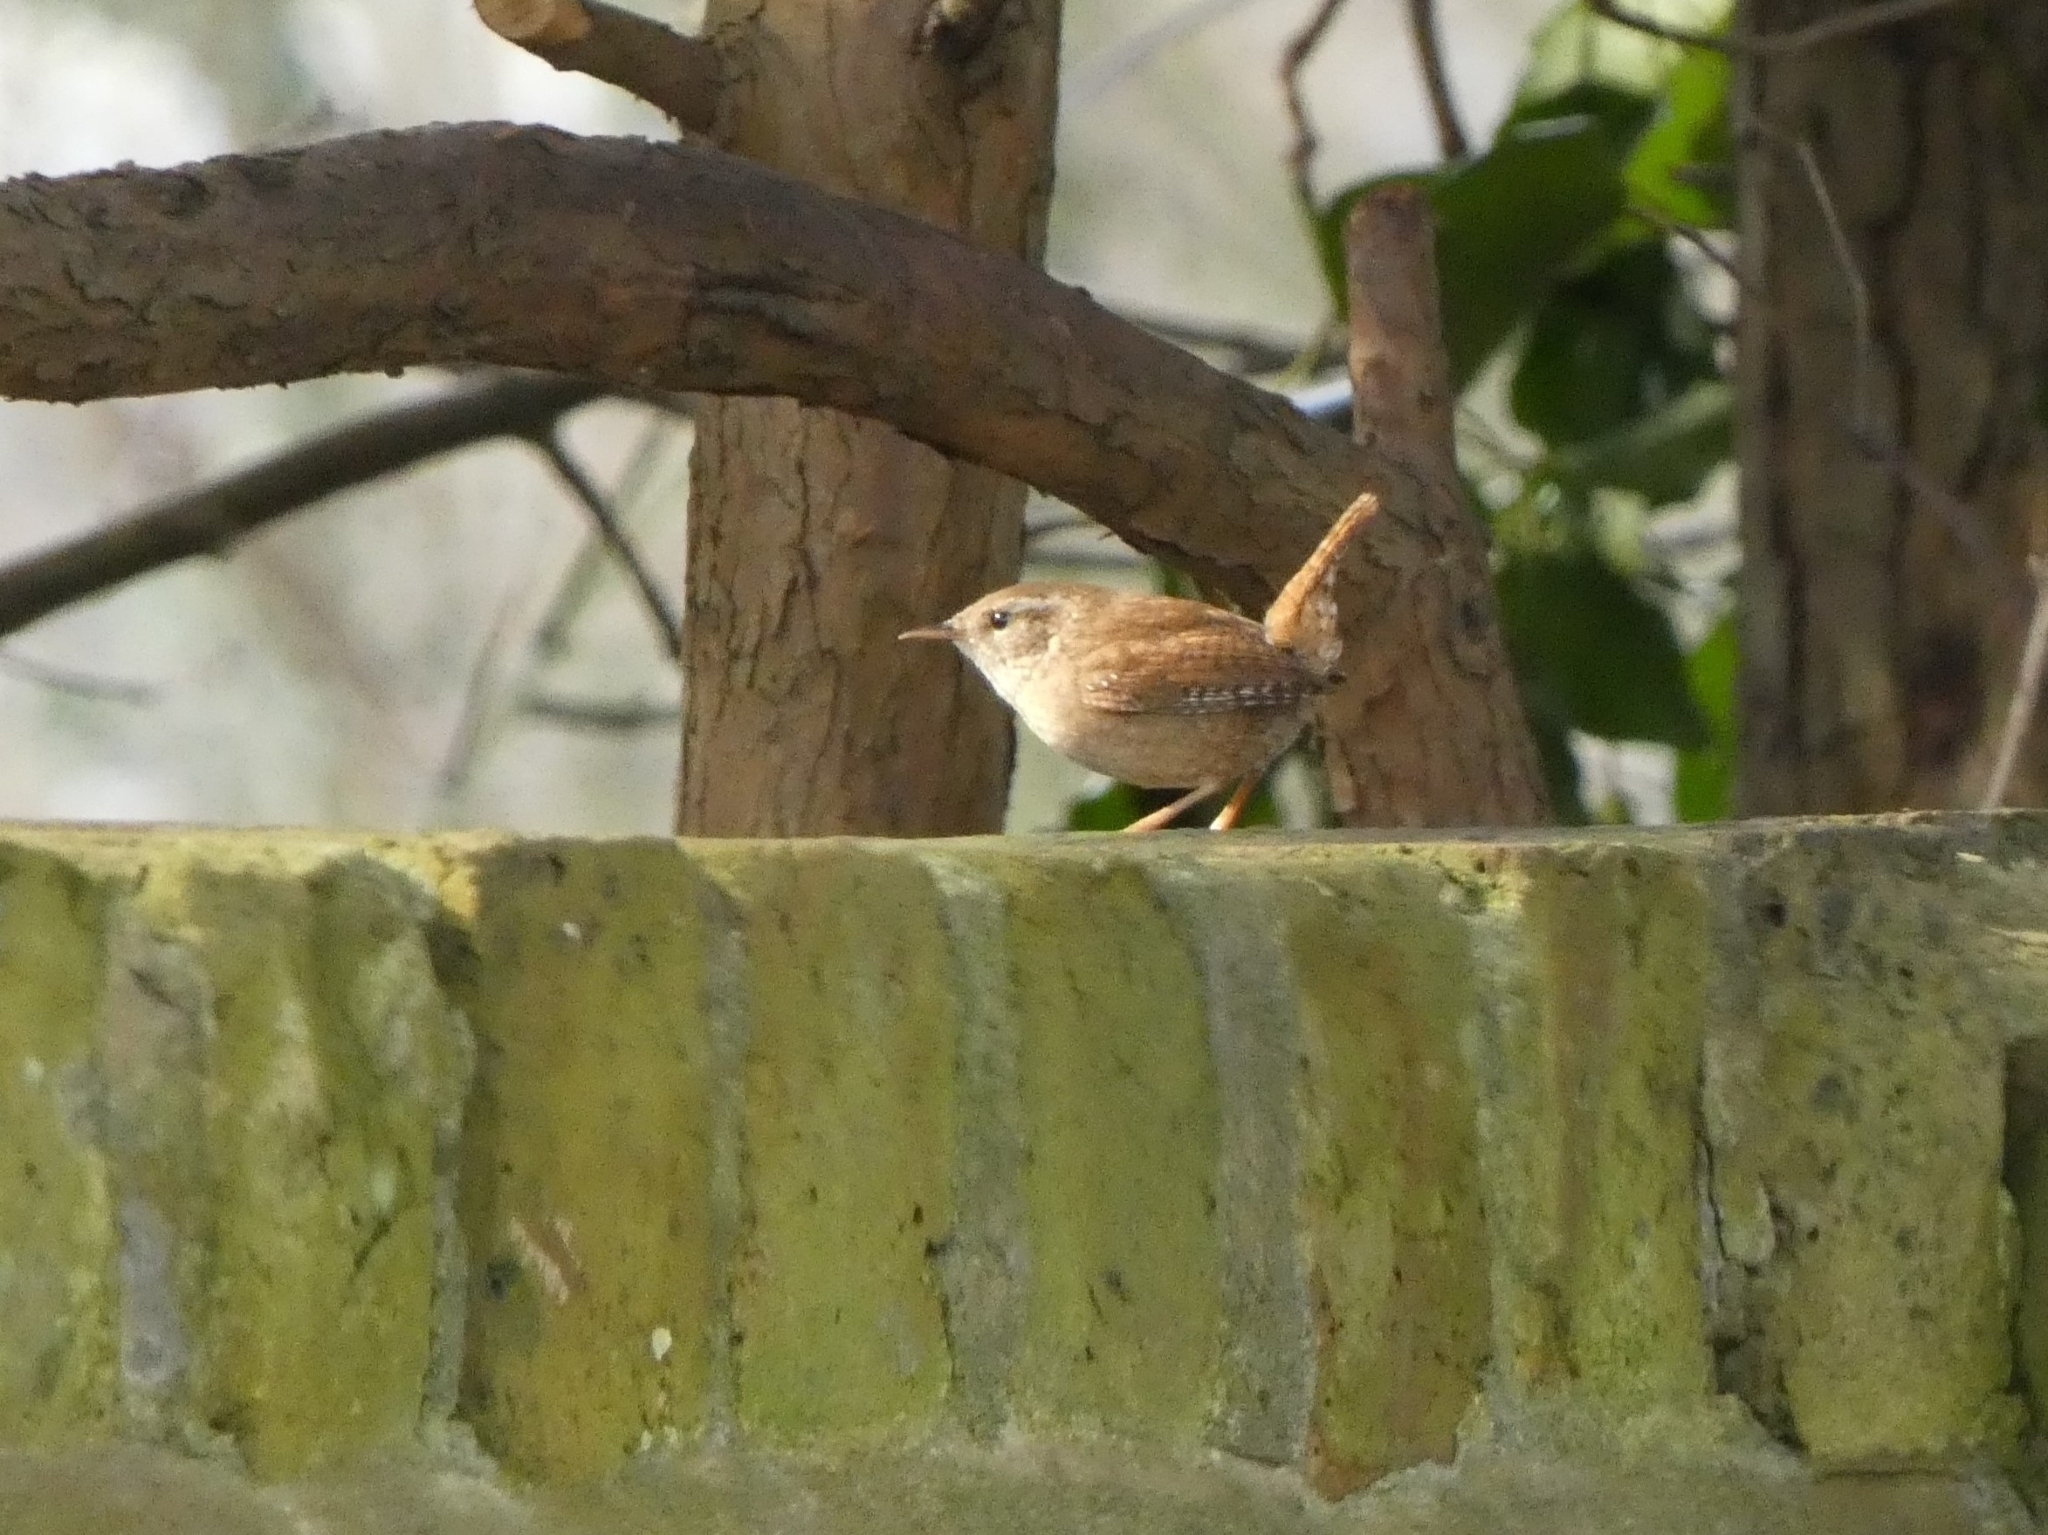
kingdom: Animalia
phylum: Chordata
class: Aves
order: Passeriformes
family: Troglodytidae
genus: Troglodytes
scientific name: Troglodytes troglodytes
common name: Eurasian wren
